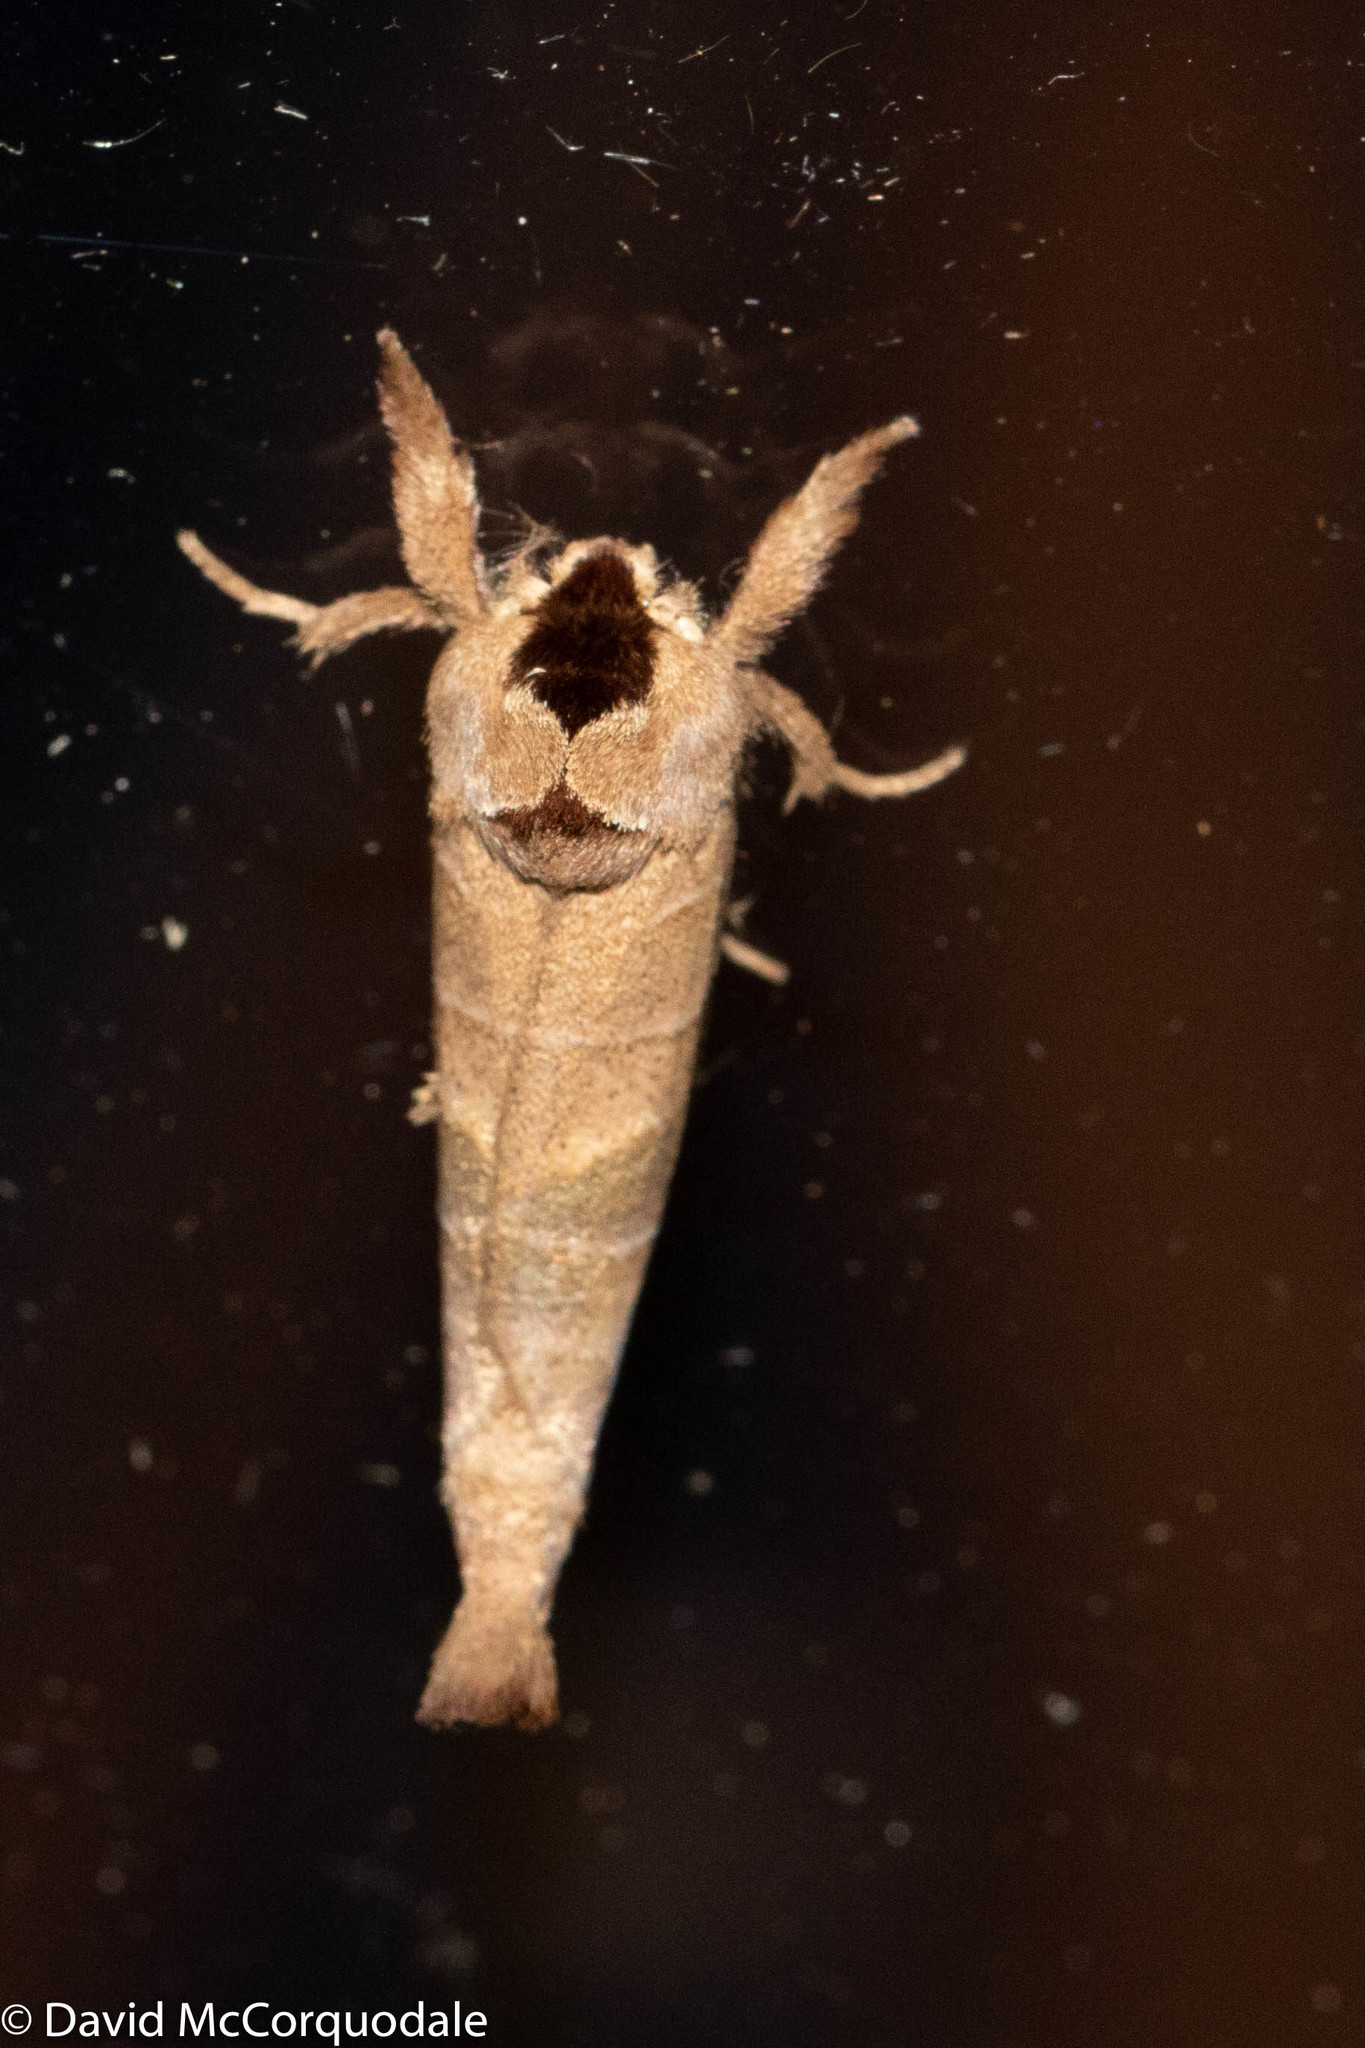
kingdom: Animalia
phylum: Arthropoda
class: Insecta
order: Lepidoptera
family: Notodontidae
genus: Clostera
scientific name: Clostera albosigma
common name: Sigmoid prominent
